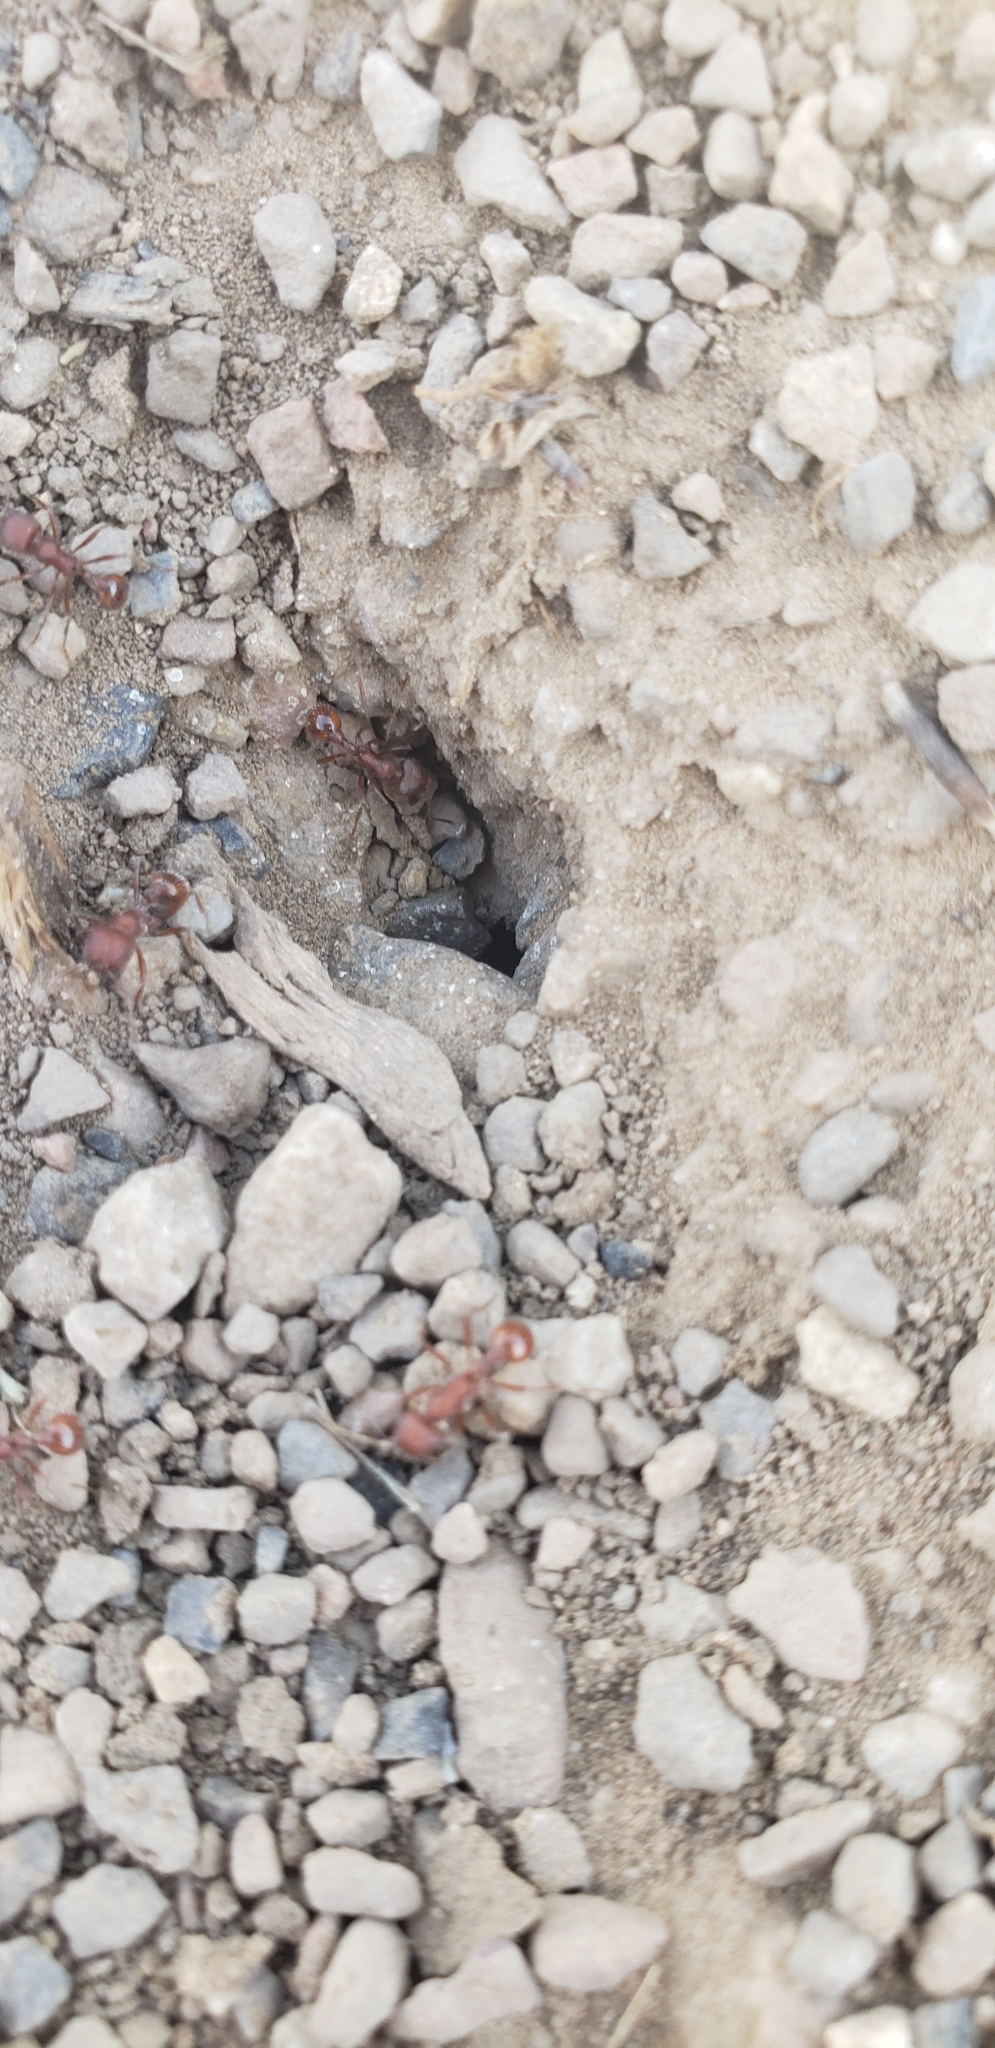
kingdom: Animalia
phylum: Arthropoda
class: Insecta
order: Hymenoptera
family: Formicidae
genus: Pogonomyrmex
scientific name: Pogonomyrmex occidentalis
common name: Western harvester ant
